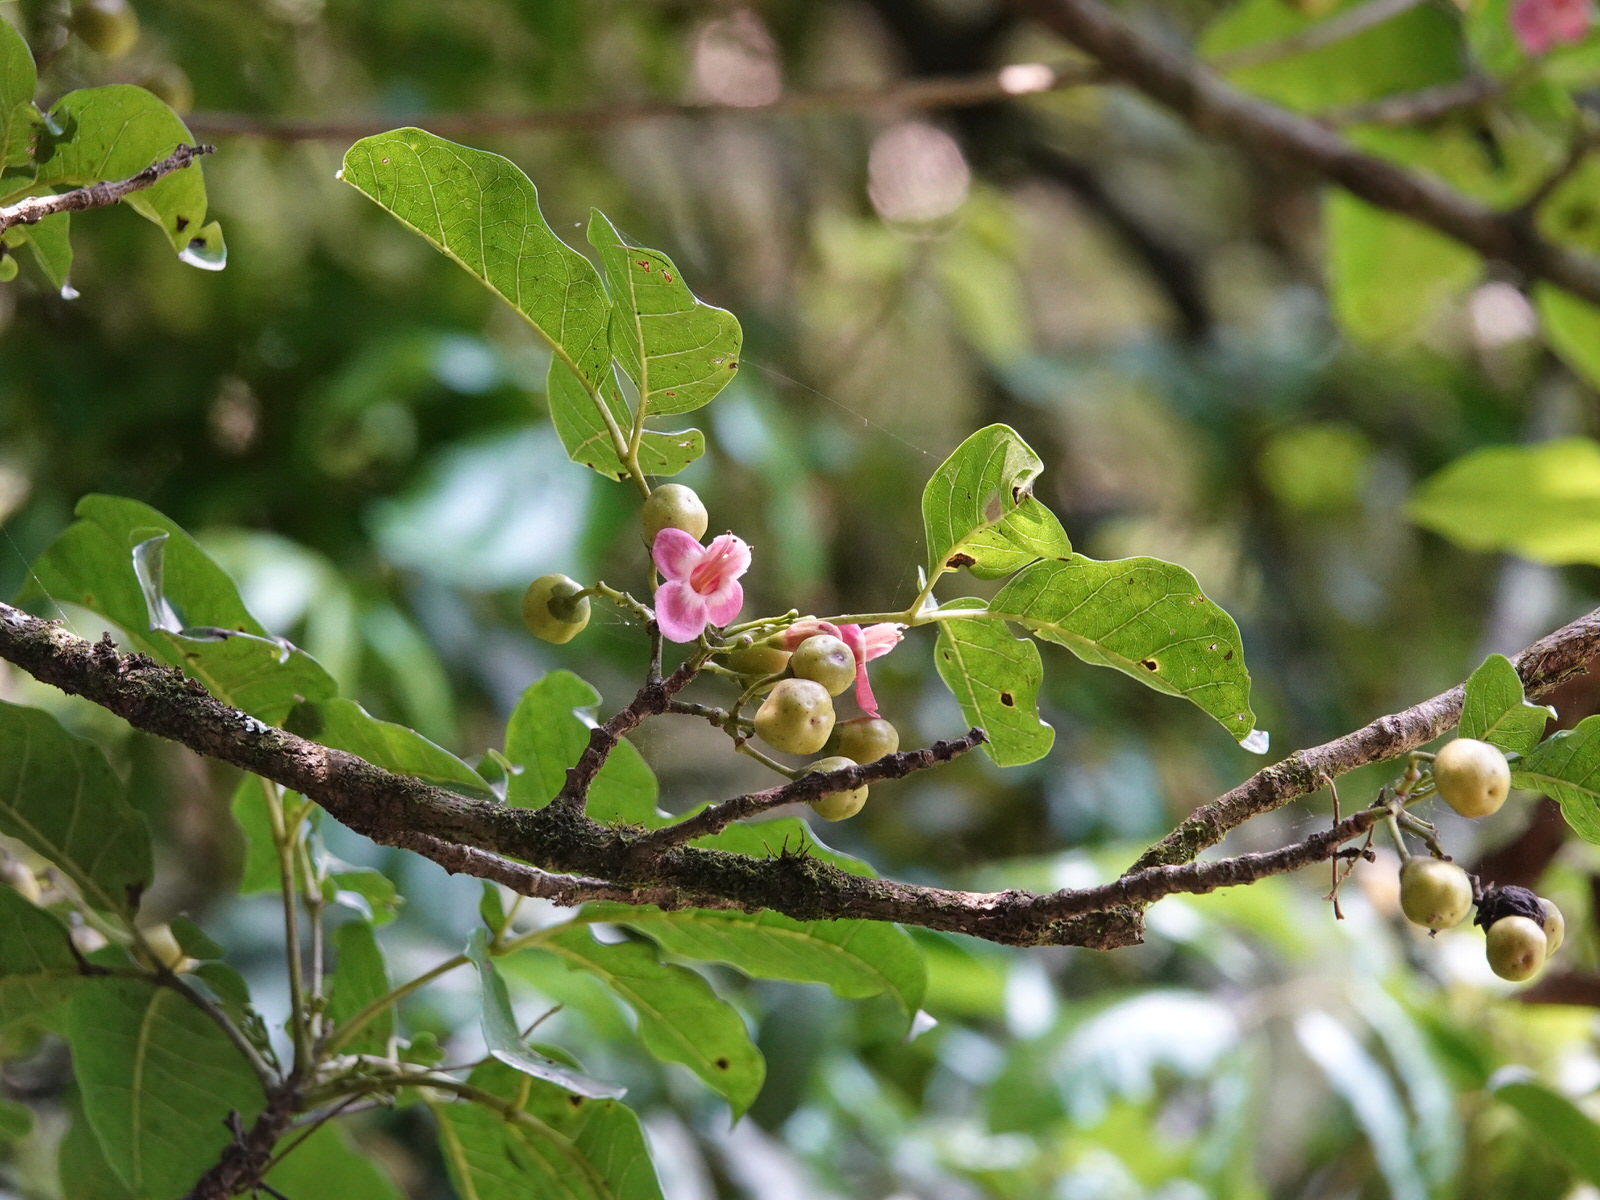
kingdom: Plantae
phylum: Tracheophyta
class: Magnoliopsida
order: Lamiales
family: Lamiaceae
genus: Vitex
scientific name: Vitex lucens
